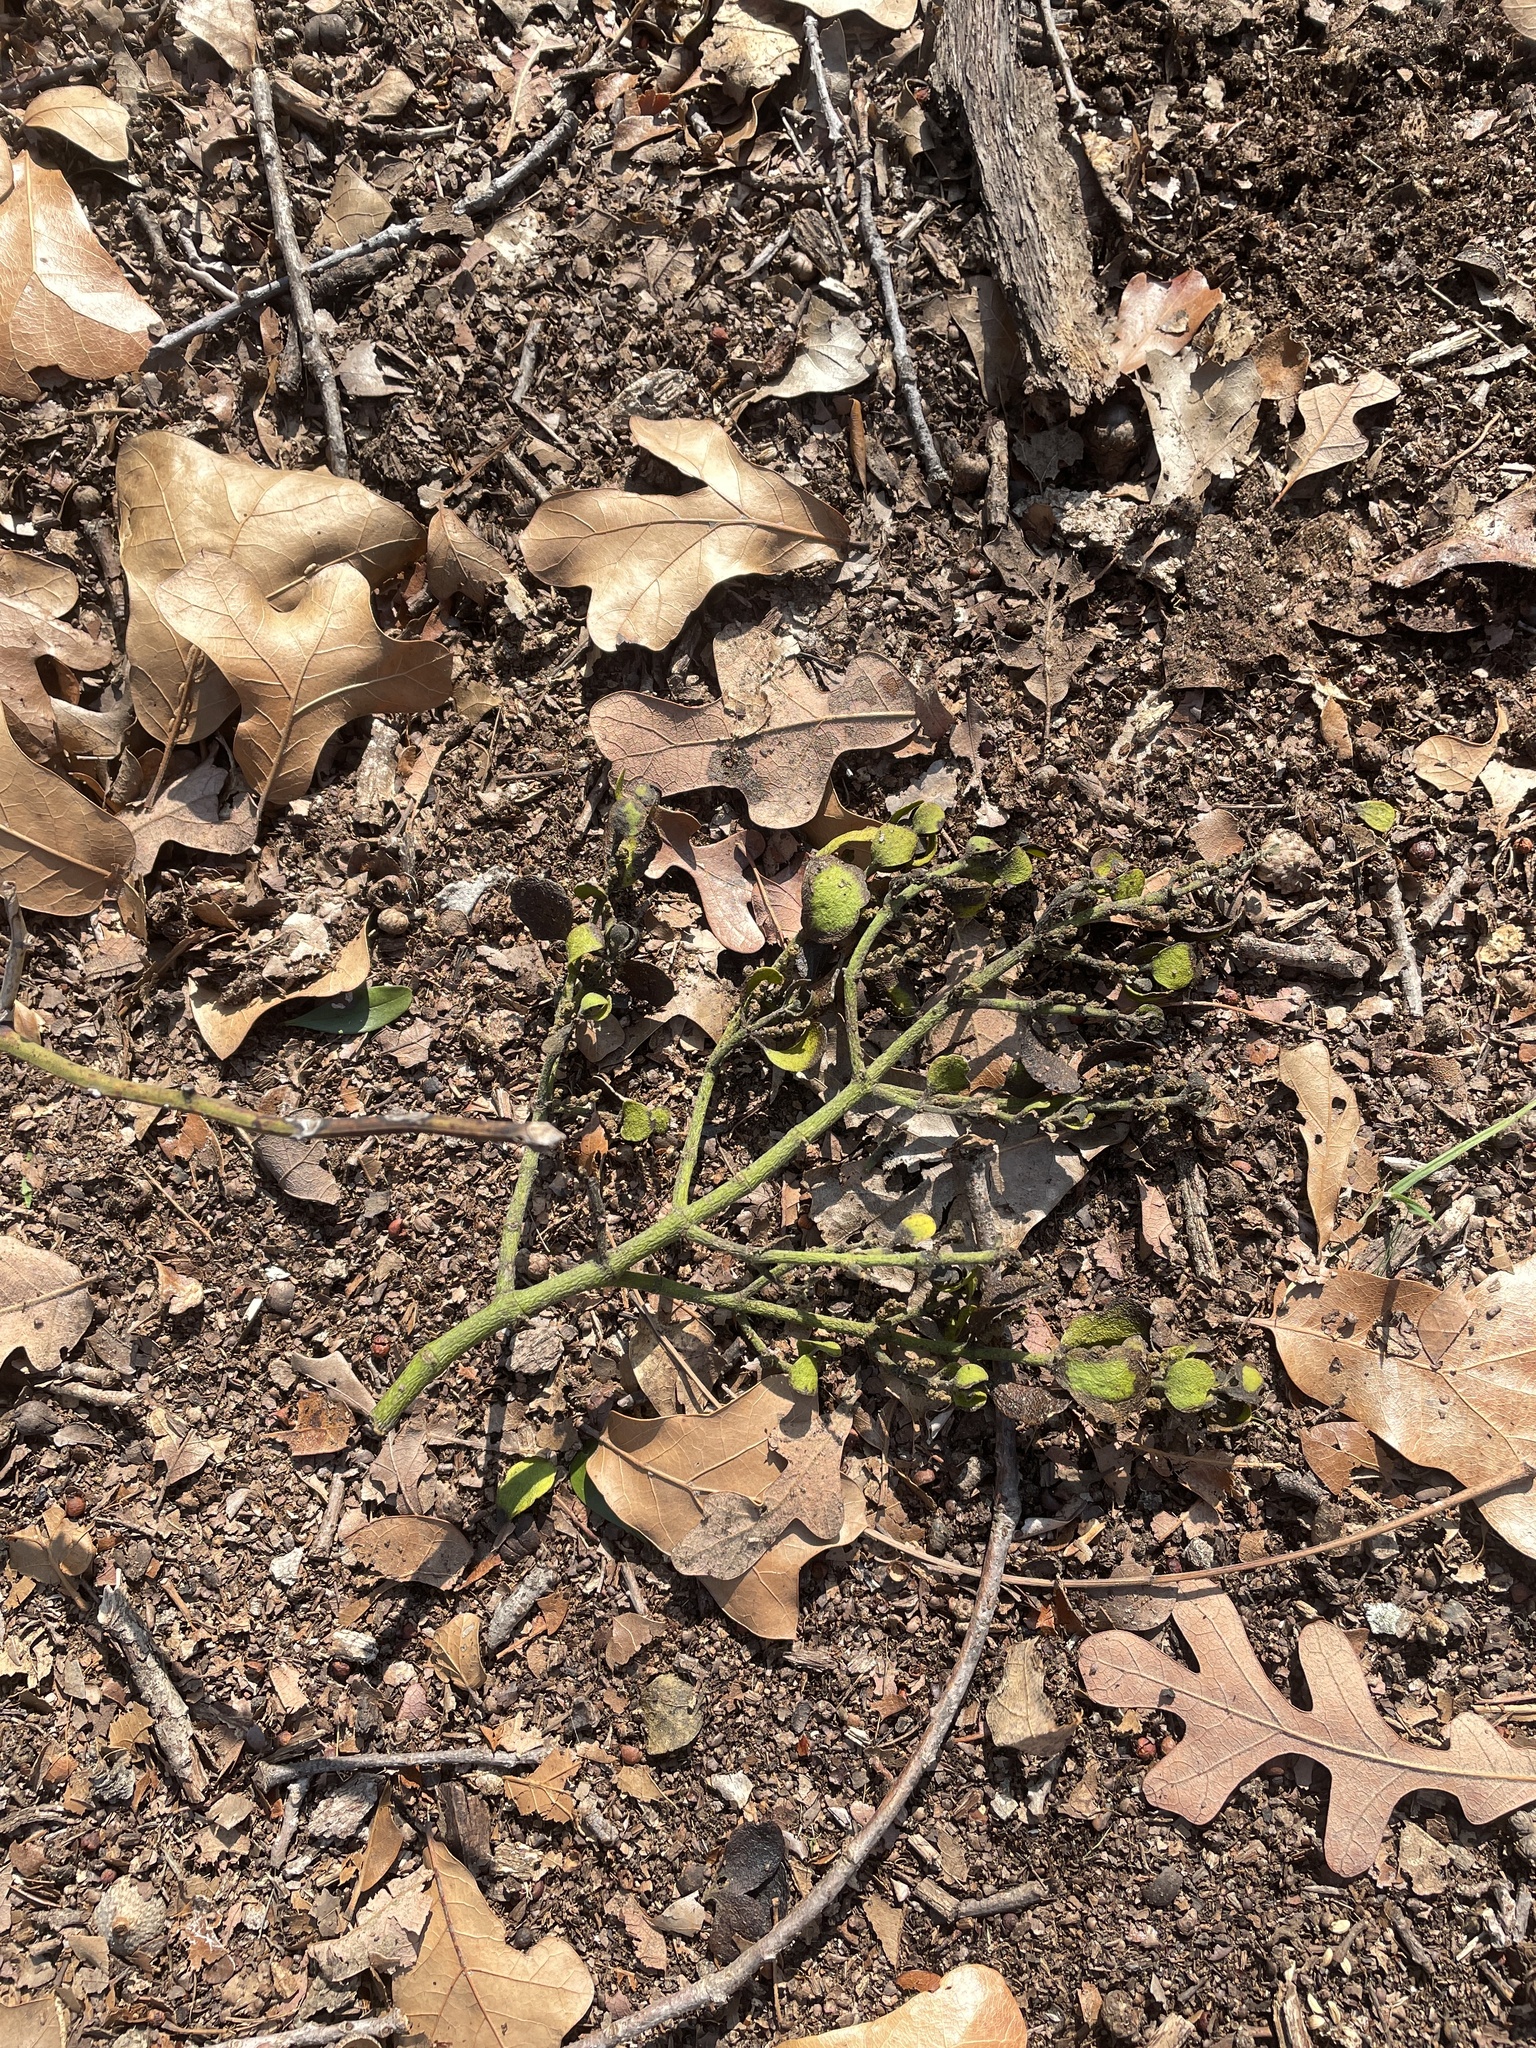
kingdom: Plantae
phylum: Tracheophyta
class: Magnoliopsida
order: Santalales
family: Viscaceae
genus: Phoradendron
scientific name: Phoradendron leucarpum
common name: Pacific mistletoe
